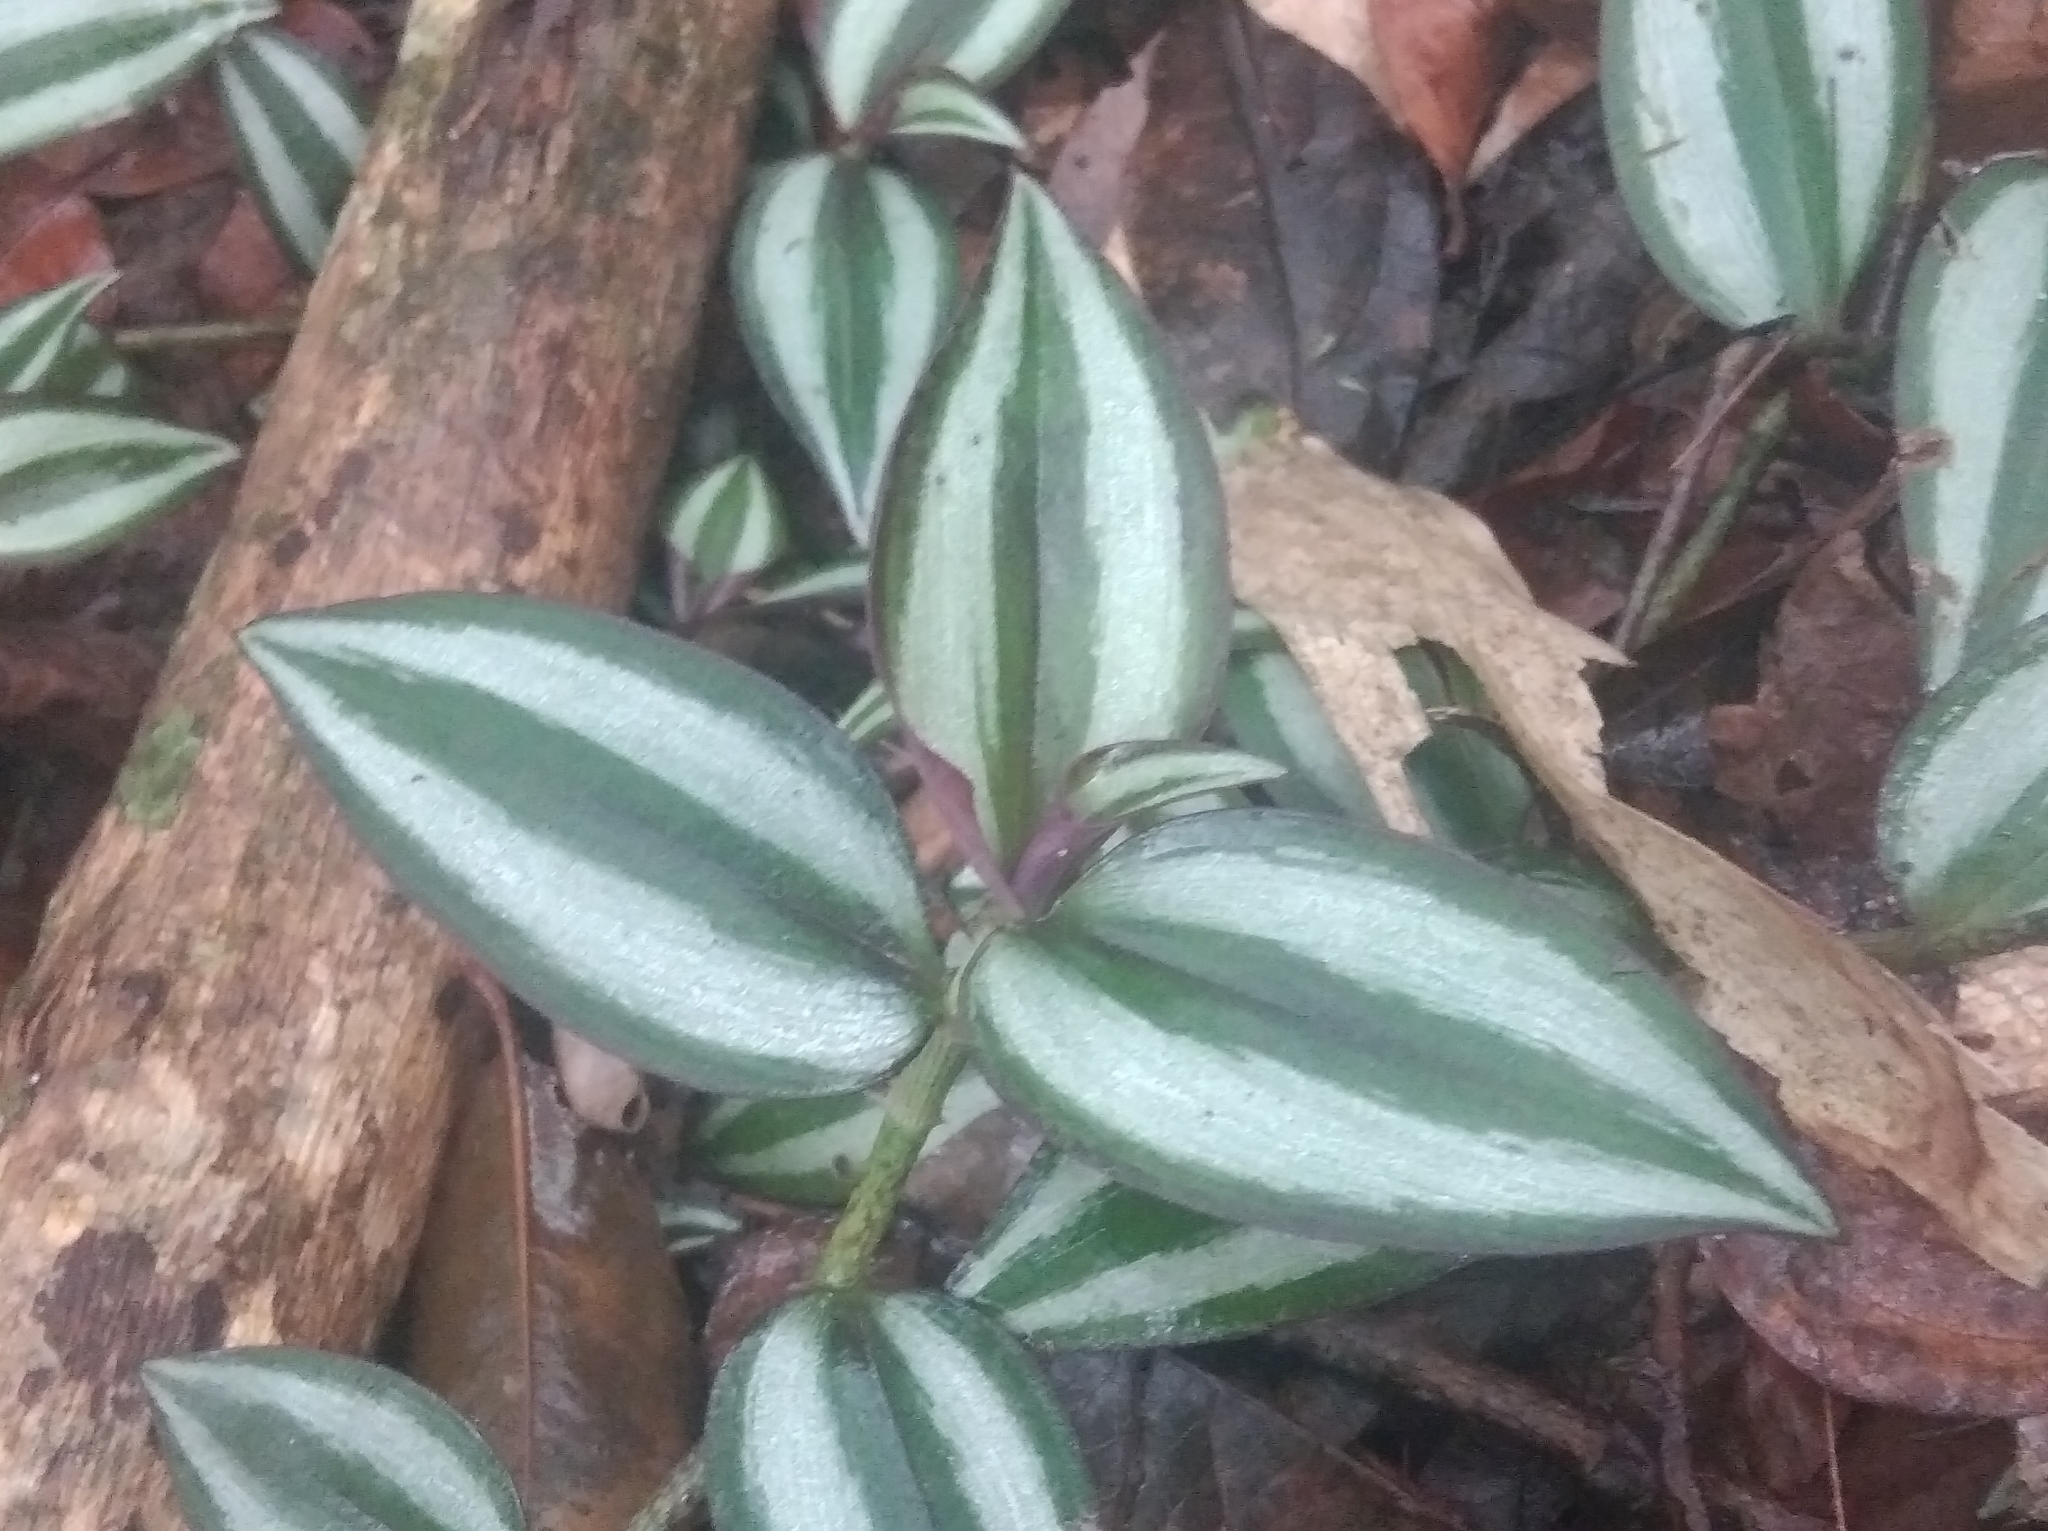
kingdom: Plantae
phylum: Tracheophyta
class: Liliopsida
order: Commelinales
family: Commelinaceae
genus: Tradescantia
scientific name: Tradescantia zebrina
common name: Inchplant
